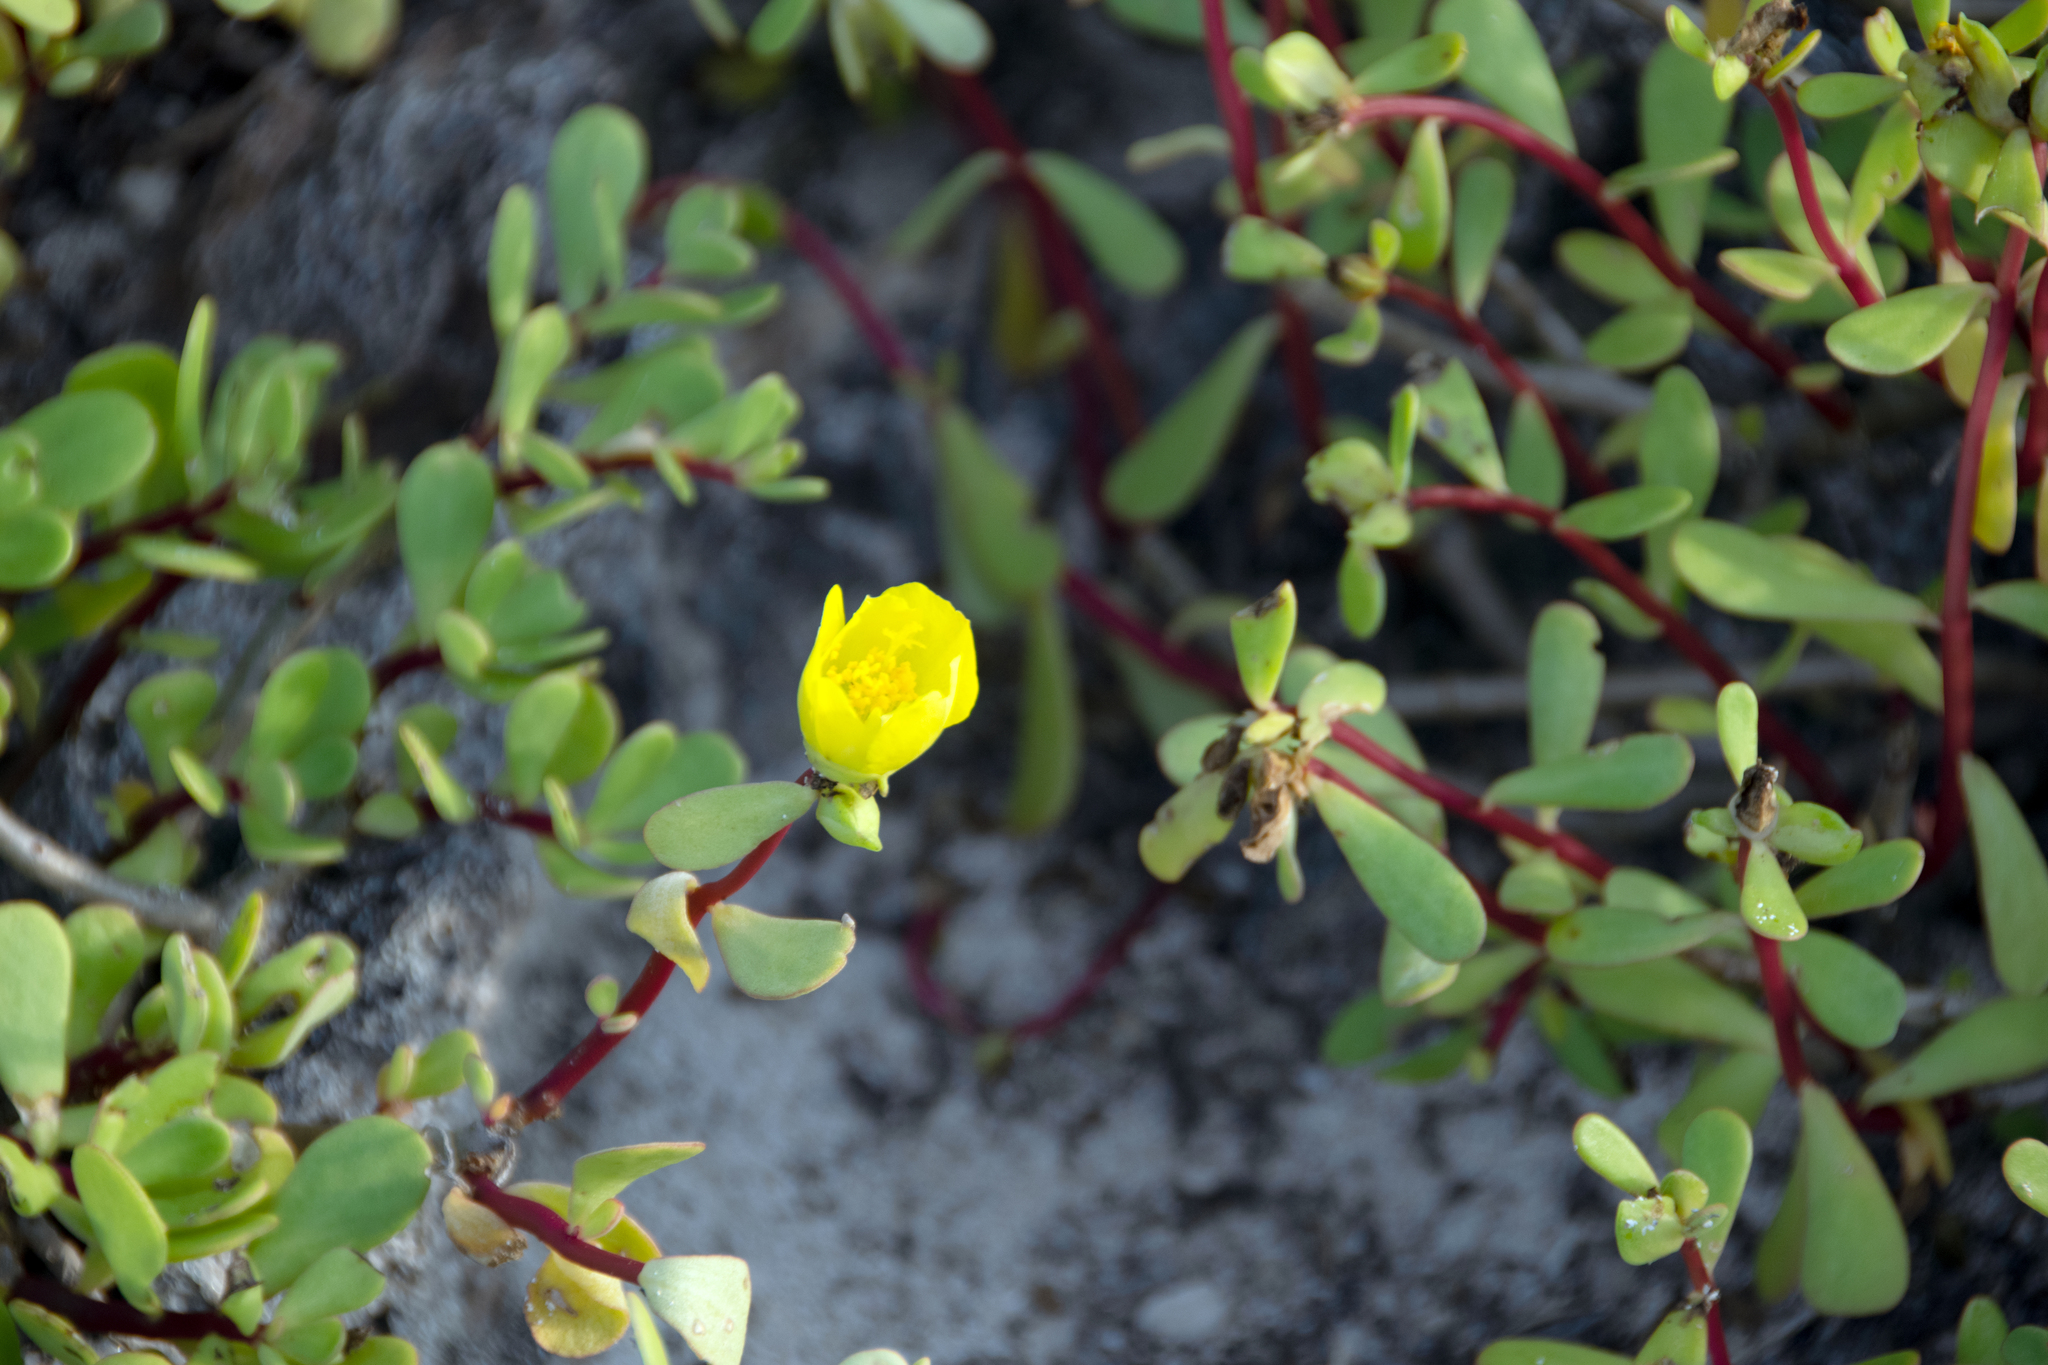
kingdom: Plantae
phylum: Tracheophyta
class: Magnoliopsida
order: Caryophyllales
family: Portulacaceae
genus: Portulaca
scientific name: Portulaca howellii
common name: Galapagos purslane
